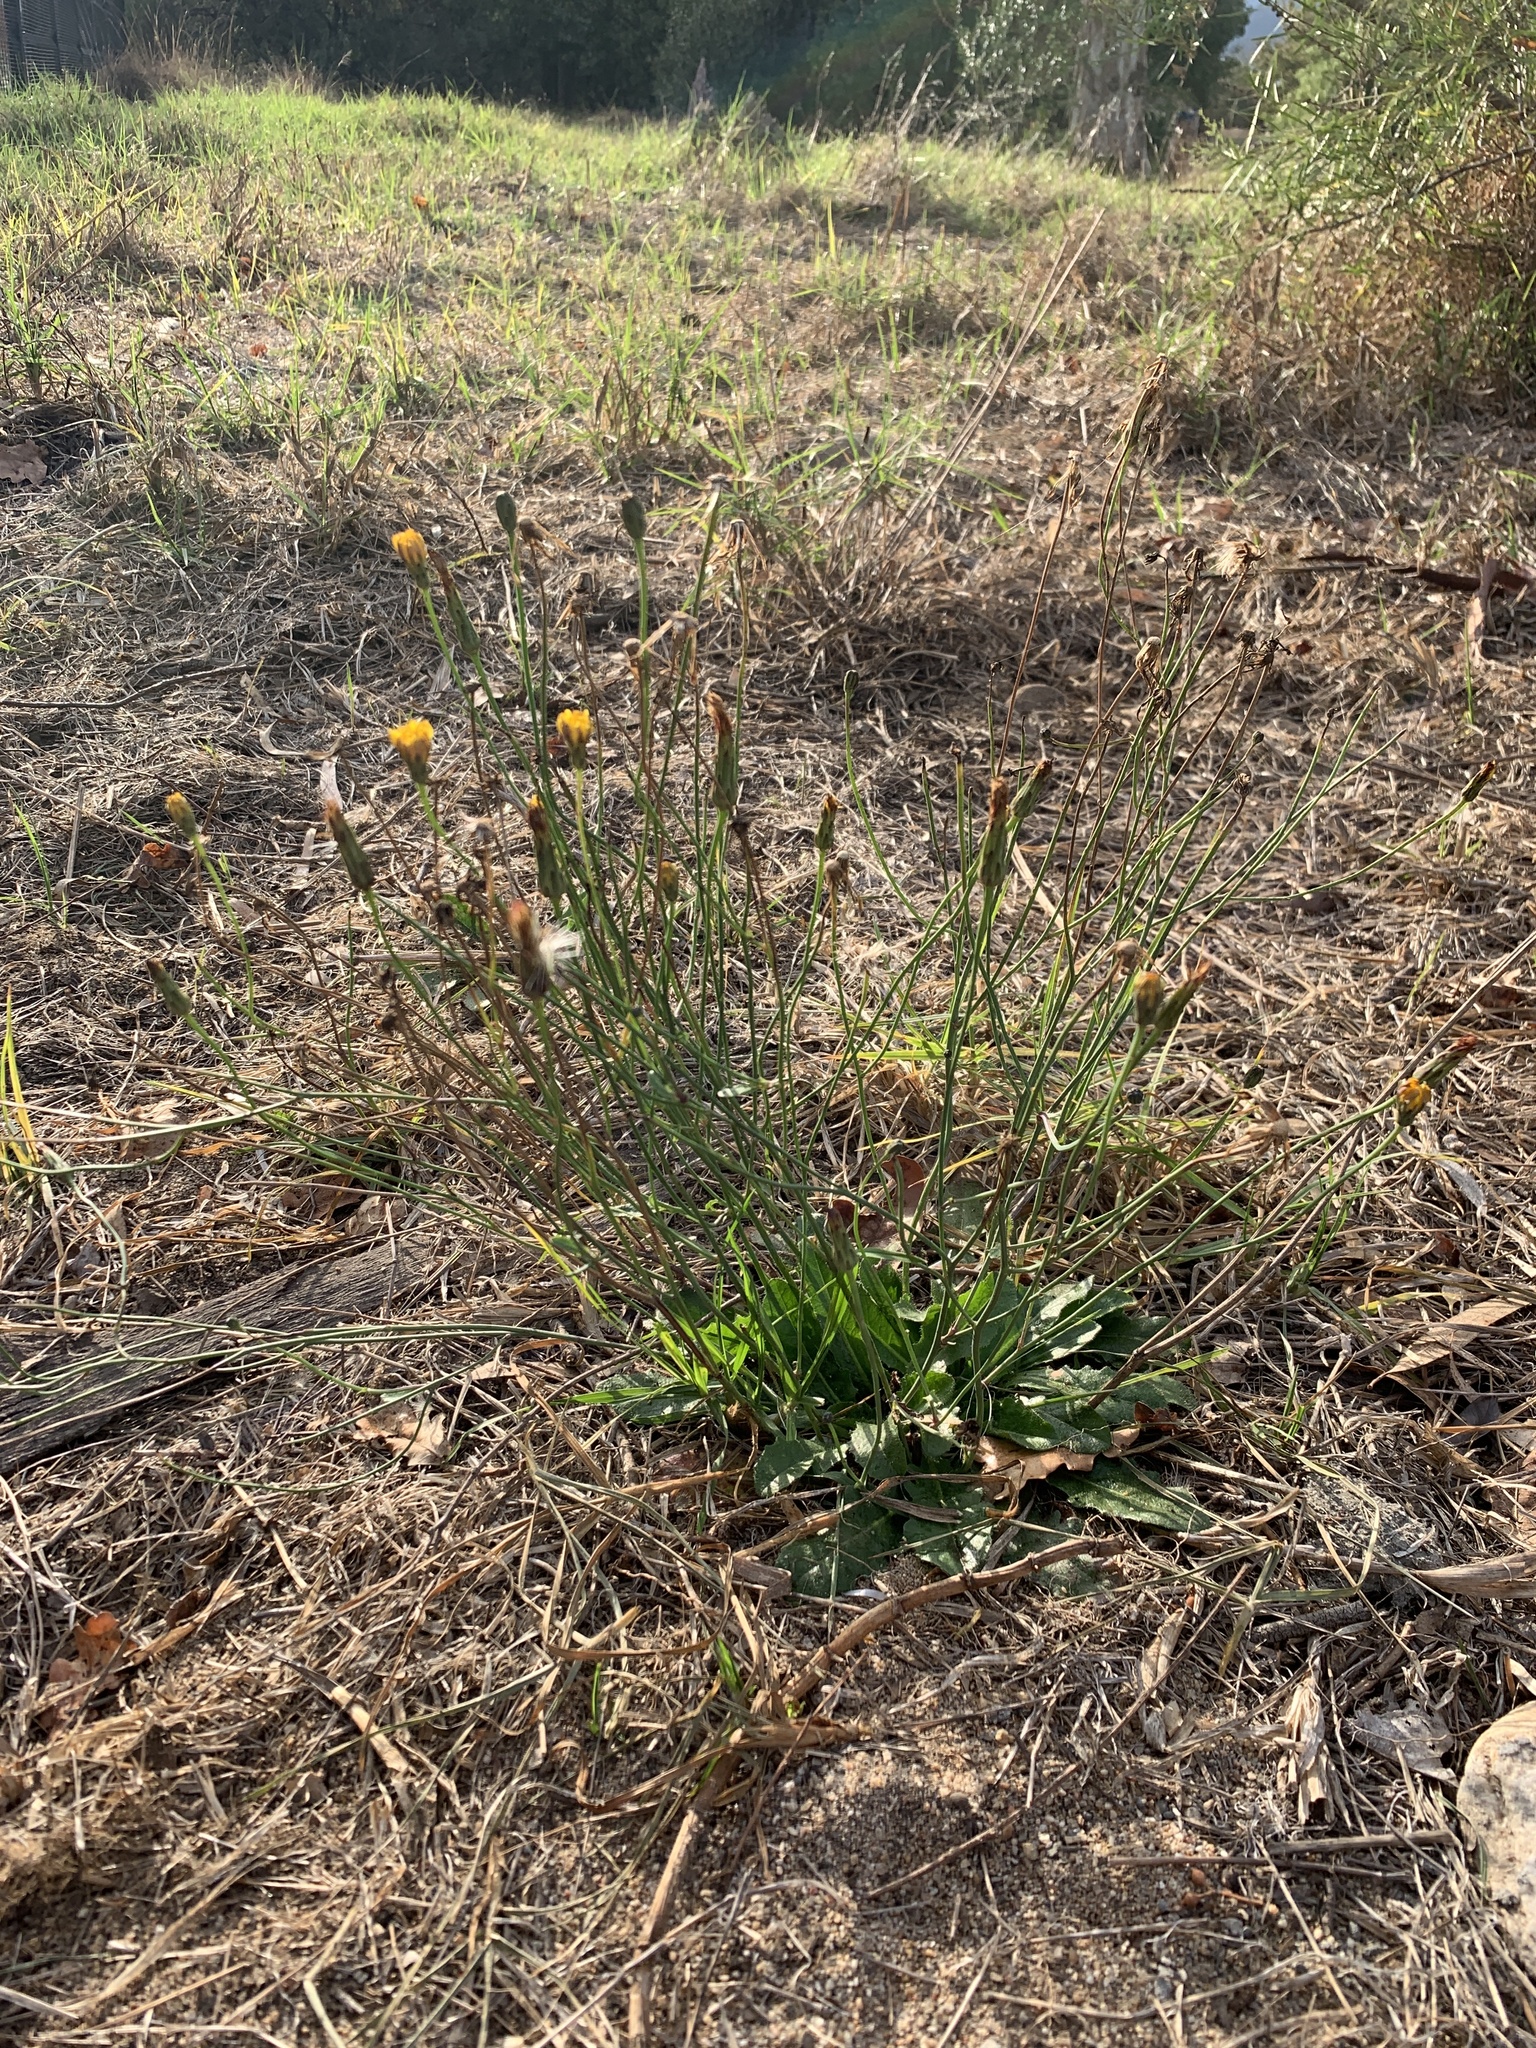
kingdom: Plantae
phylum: Tracheophyta
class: Magnoliopsida
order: Asterales
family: Asteraceae
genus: Hypochaeris
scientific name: Hypochaeris radicata
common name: Flatweed
